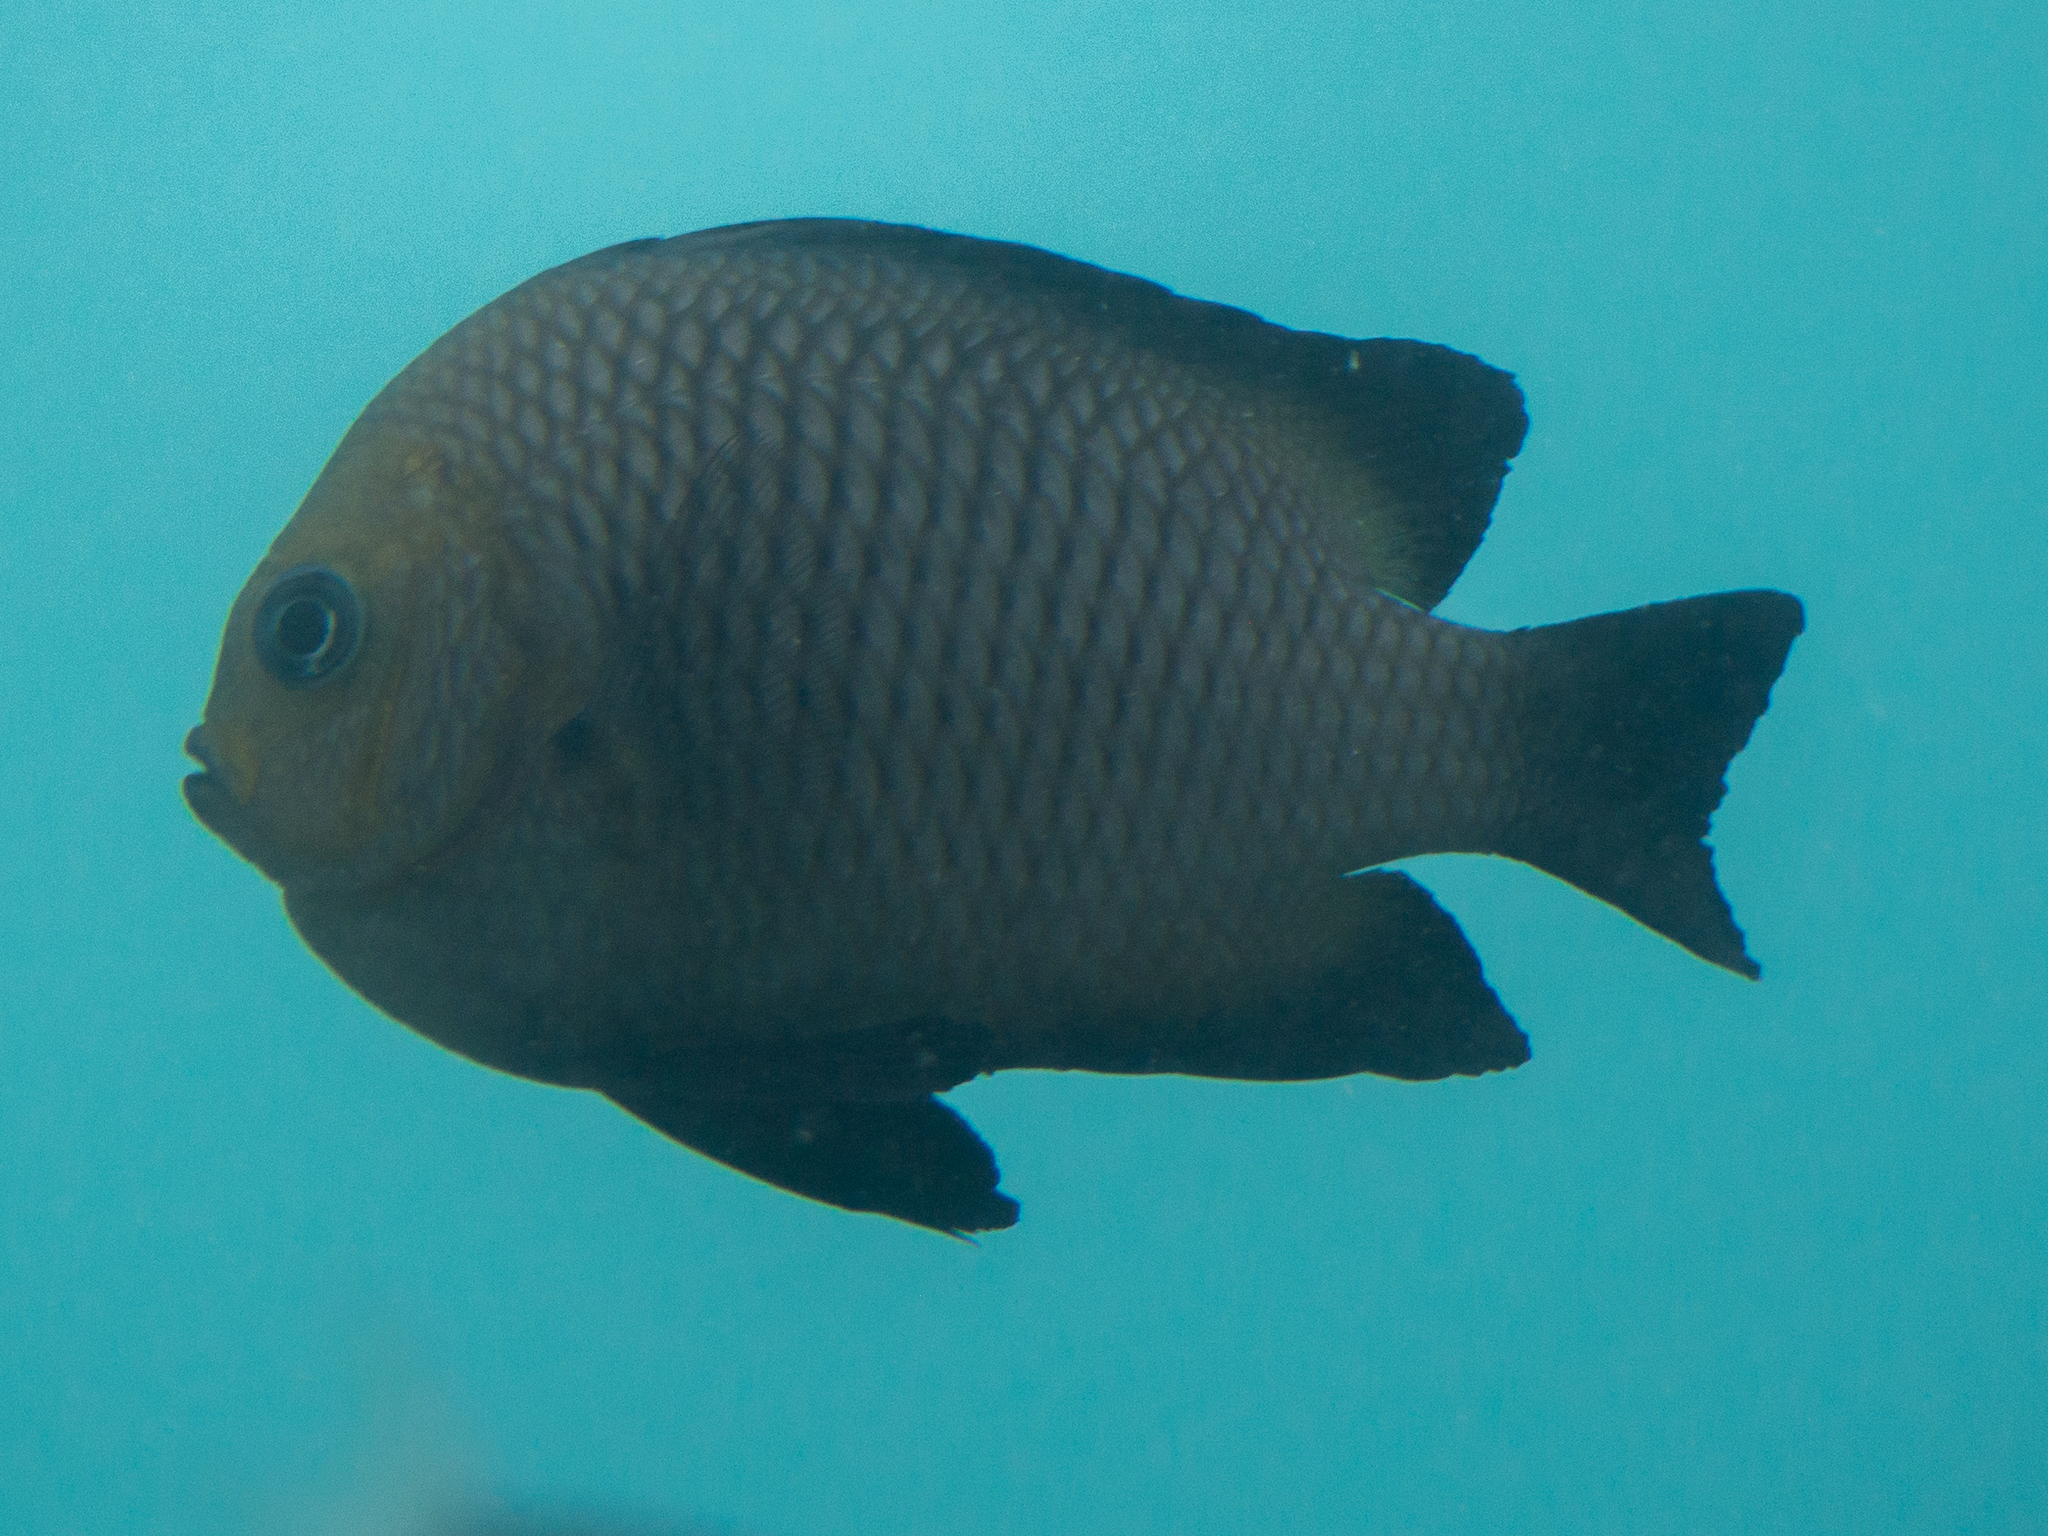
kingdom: Animalia
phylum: Chordata
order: Perciformes
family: Pomacentridae
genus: Dascyllus
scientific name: Dascyllus trimaculatus
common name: Threespot dascyllus
